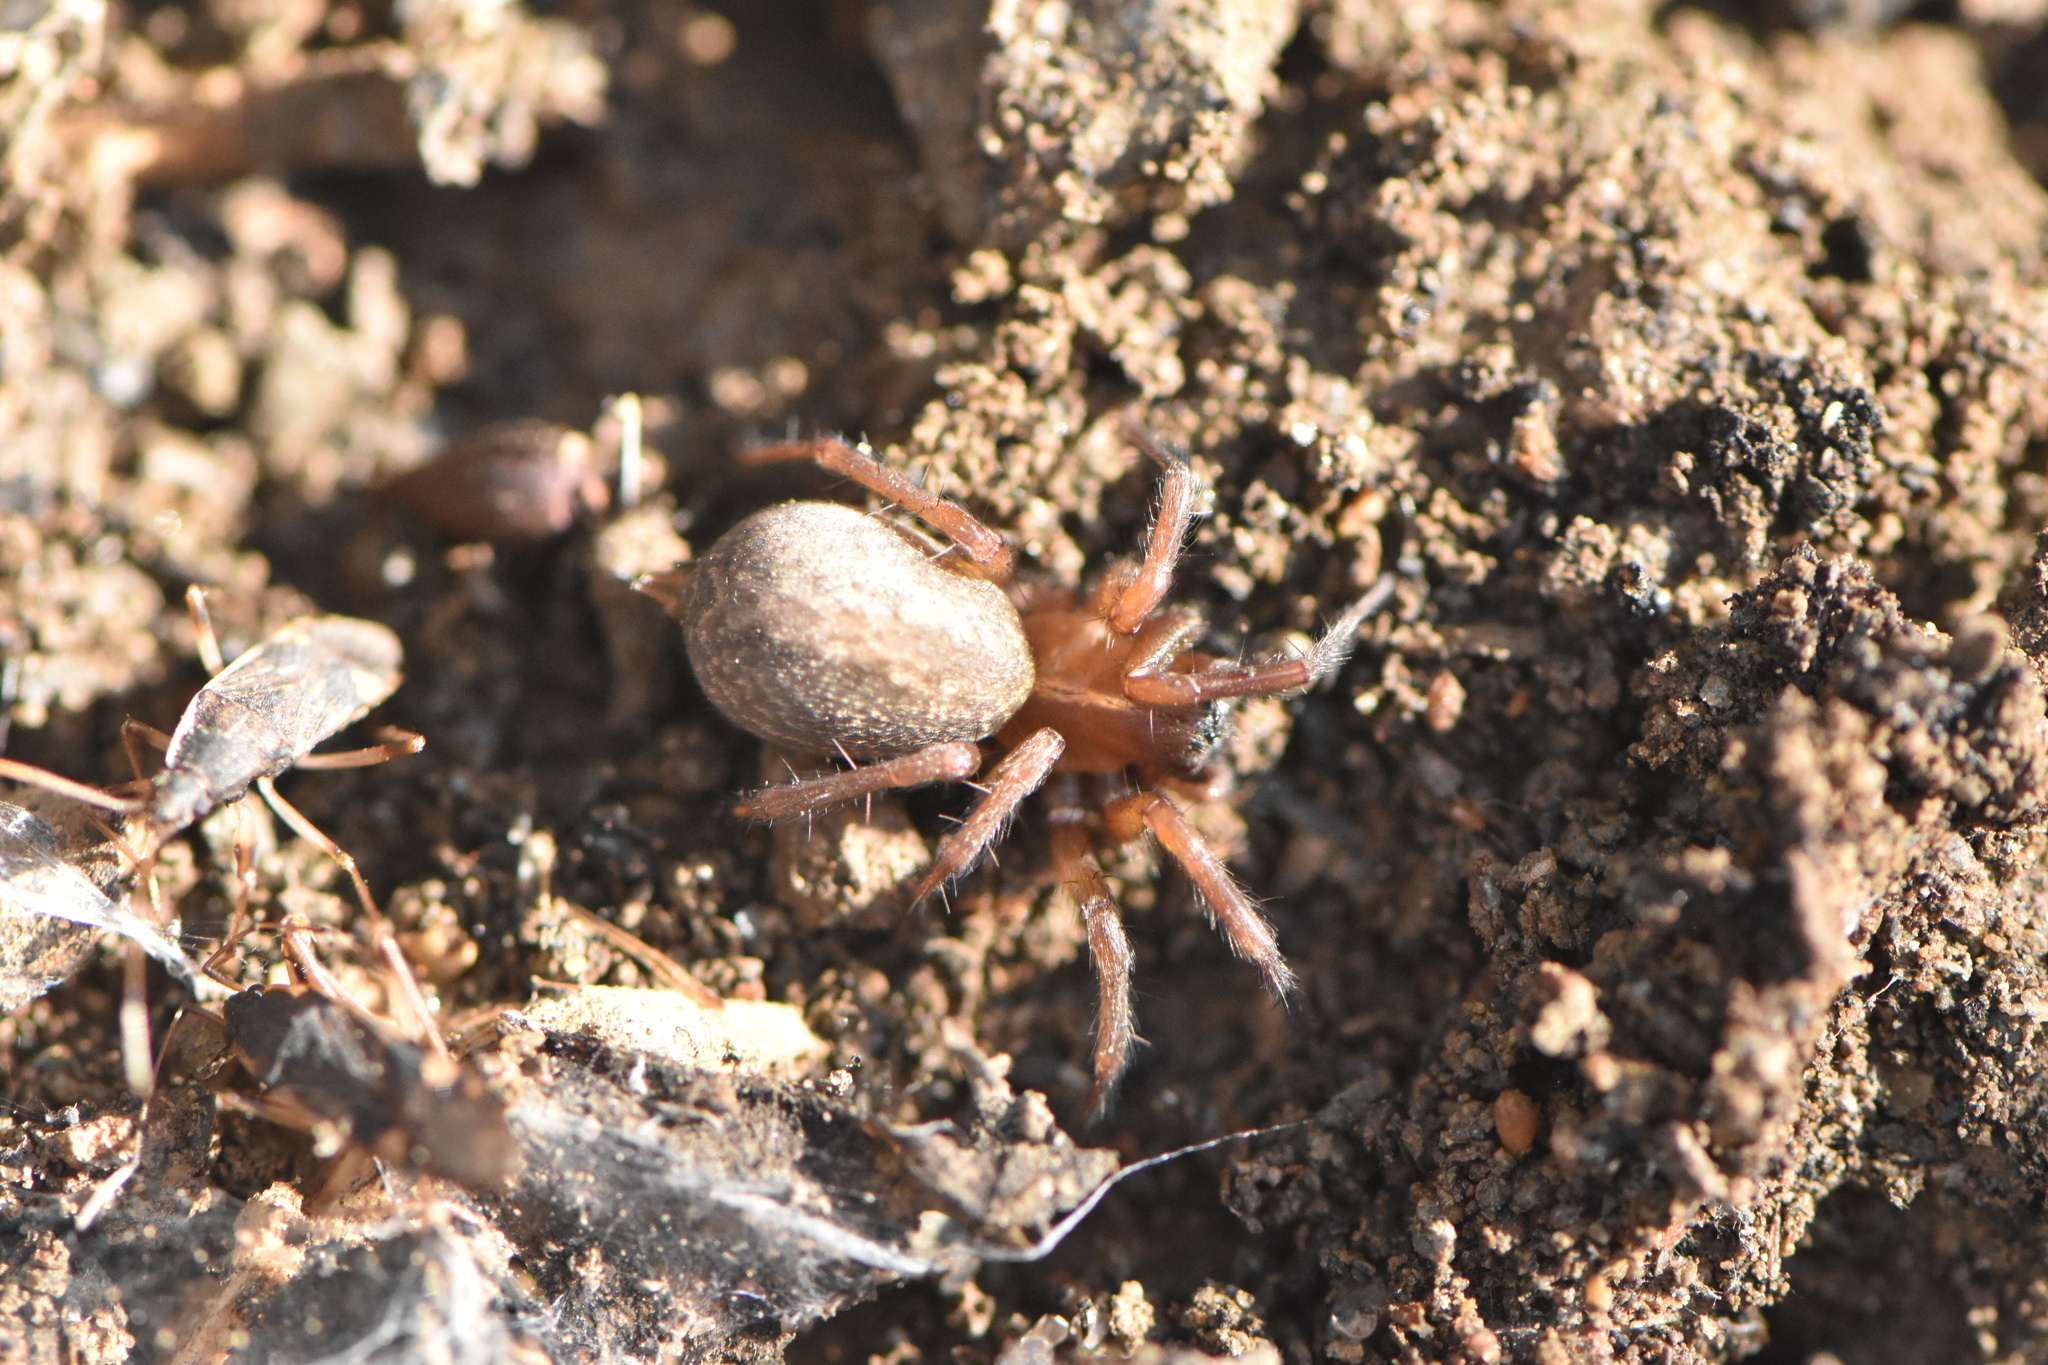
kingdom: Animalia
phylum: Arthropoda
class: Arachnida
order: Araneae
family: Agelenidae
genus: Lycosoides
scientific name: Lycosoides coarctata
